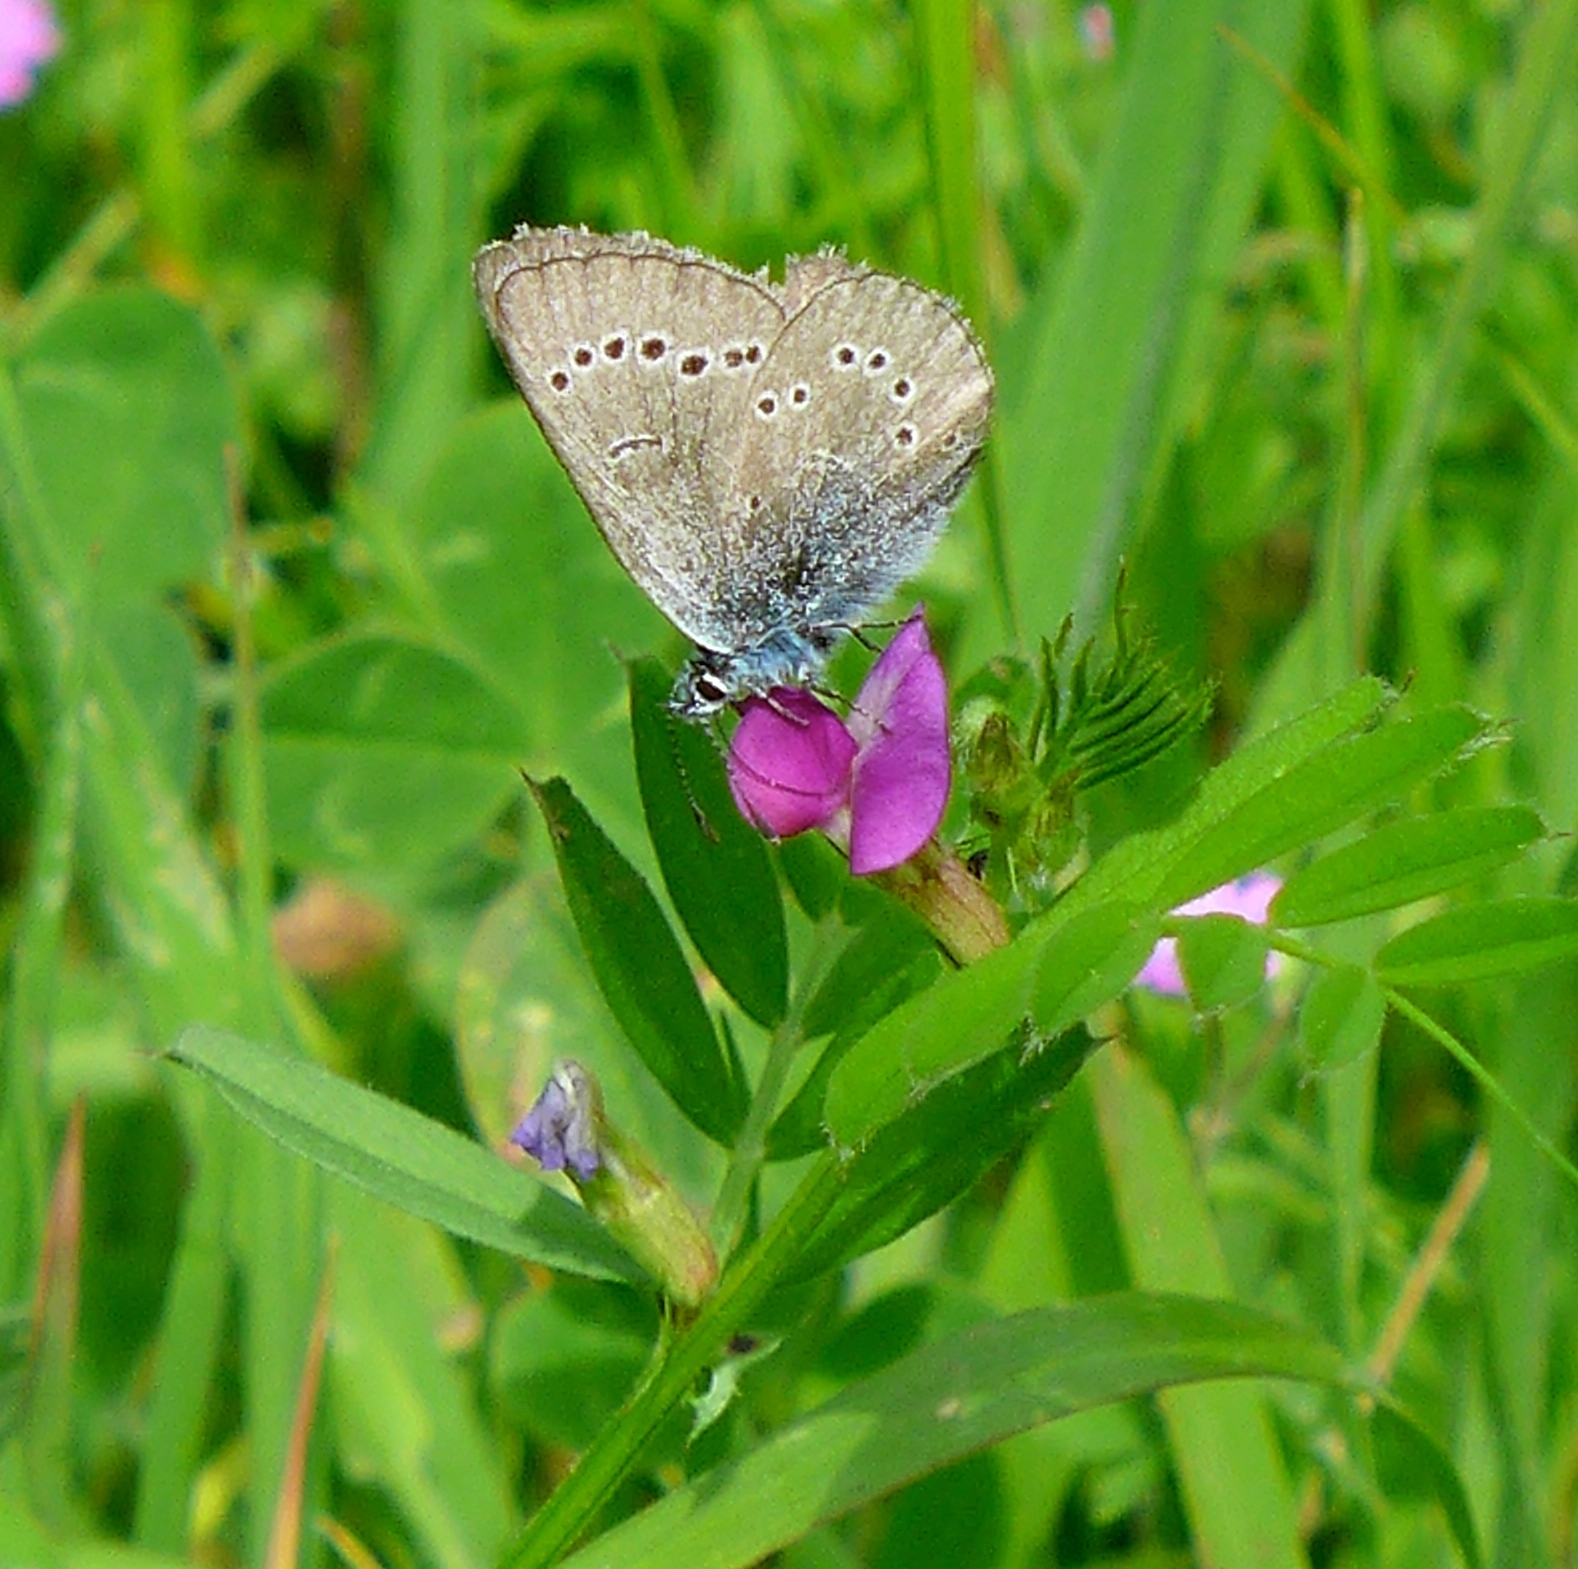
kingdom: Plantae
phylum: Tracheophyta
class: Magnoliopsida
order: Fabales
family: Fabaceae
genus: Vicia
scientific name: Vicia sativa
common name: Garden vetch
